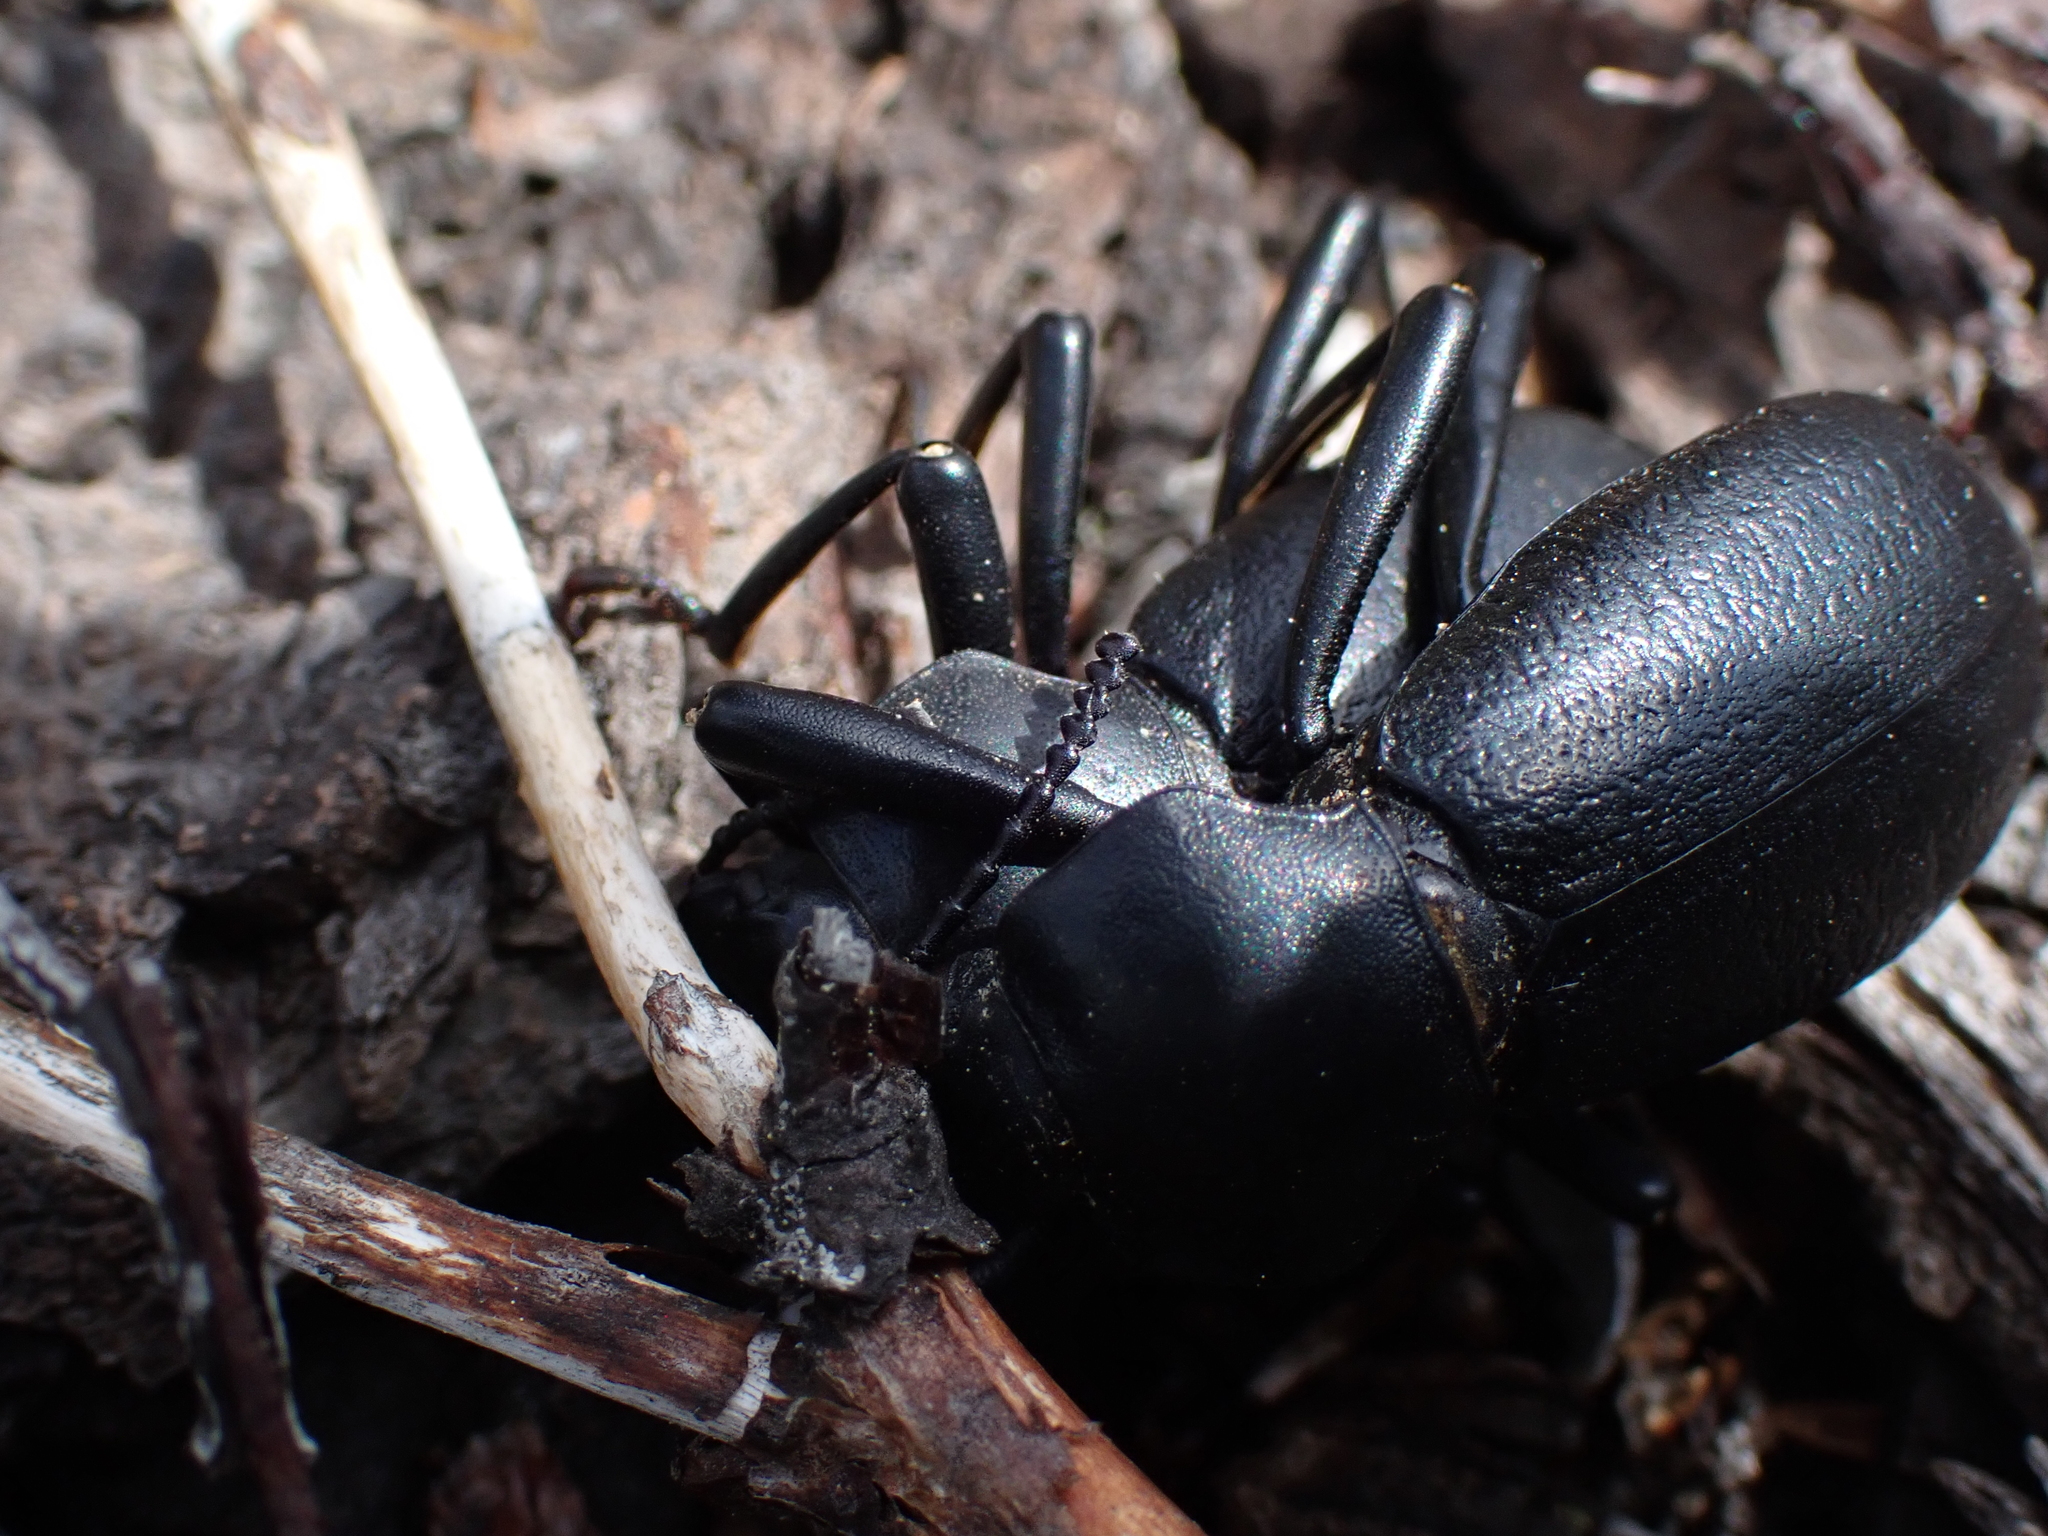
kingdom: Animalia
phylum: Arthropoda
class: Insecta
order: Coleoptera
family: Tenebrionidae
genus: Coelocnemis
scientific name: Coelocnemis dilaticollis
